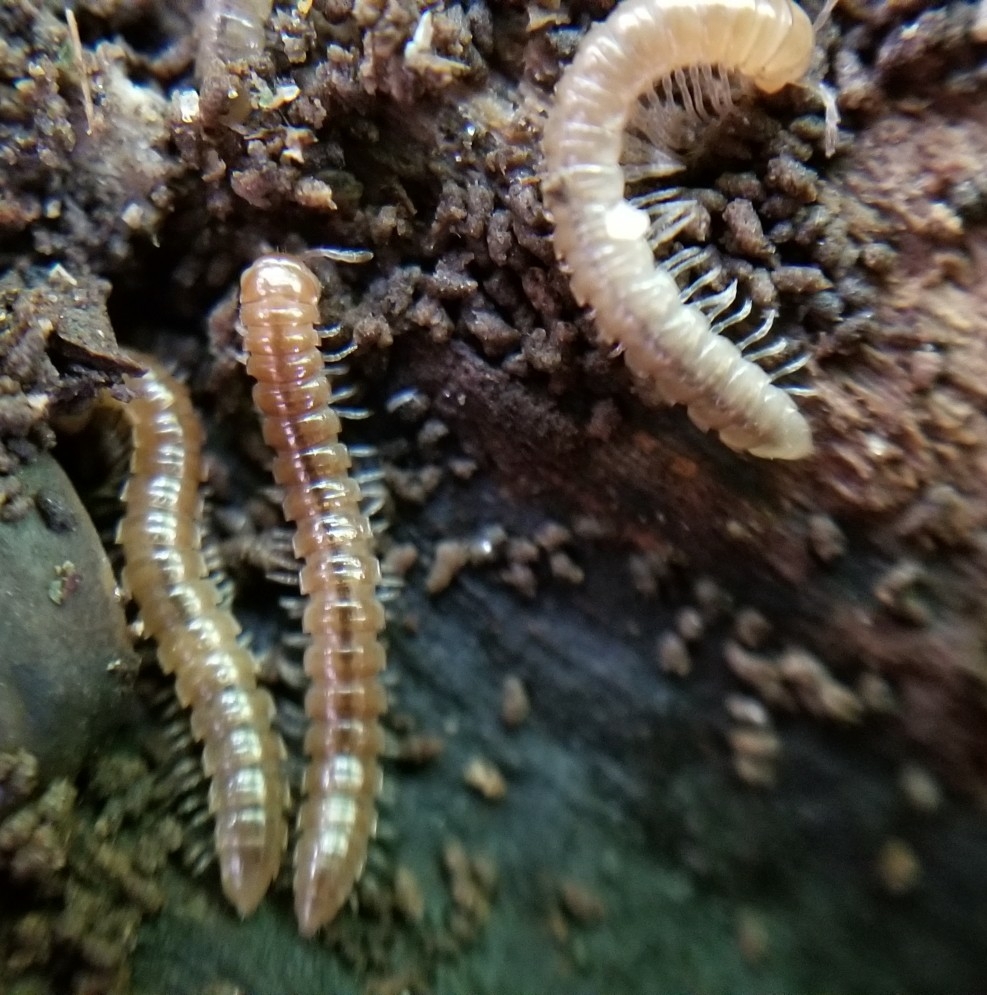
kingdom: Animalia
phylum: Arthropoda
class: Diplopoda
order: Polydesmida
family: Paradoxosomatidae
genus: Oxidus
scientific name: Oxidus gracilis
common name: Greenhouse millipede
